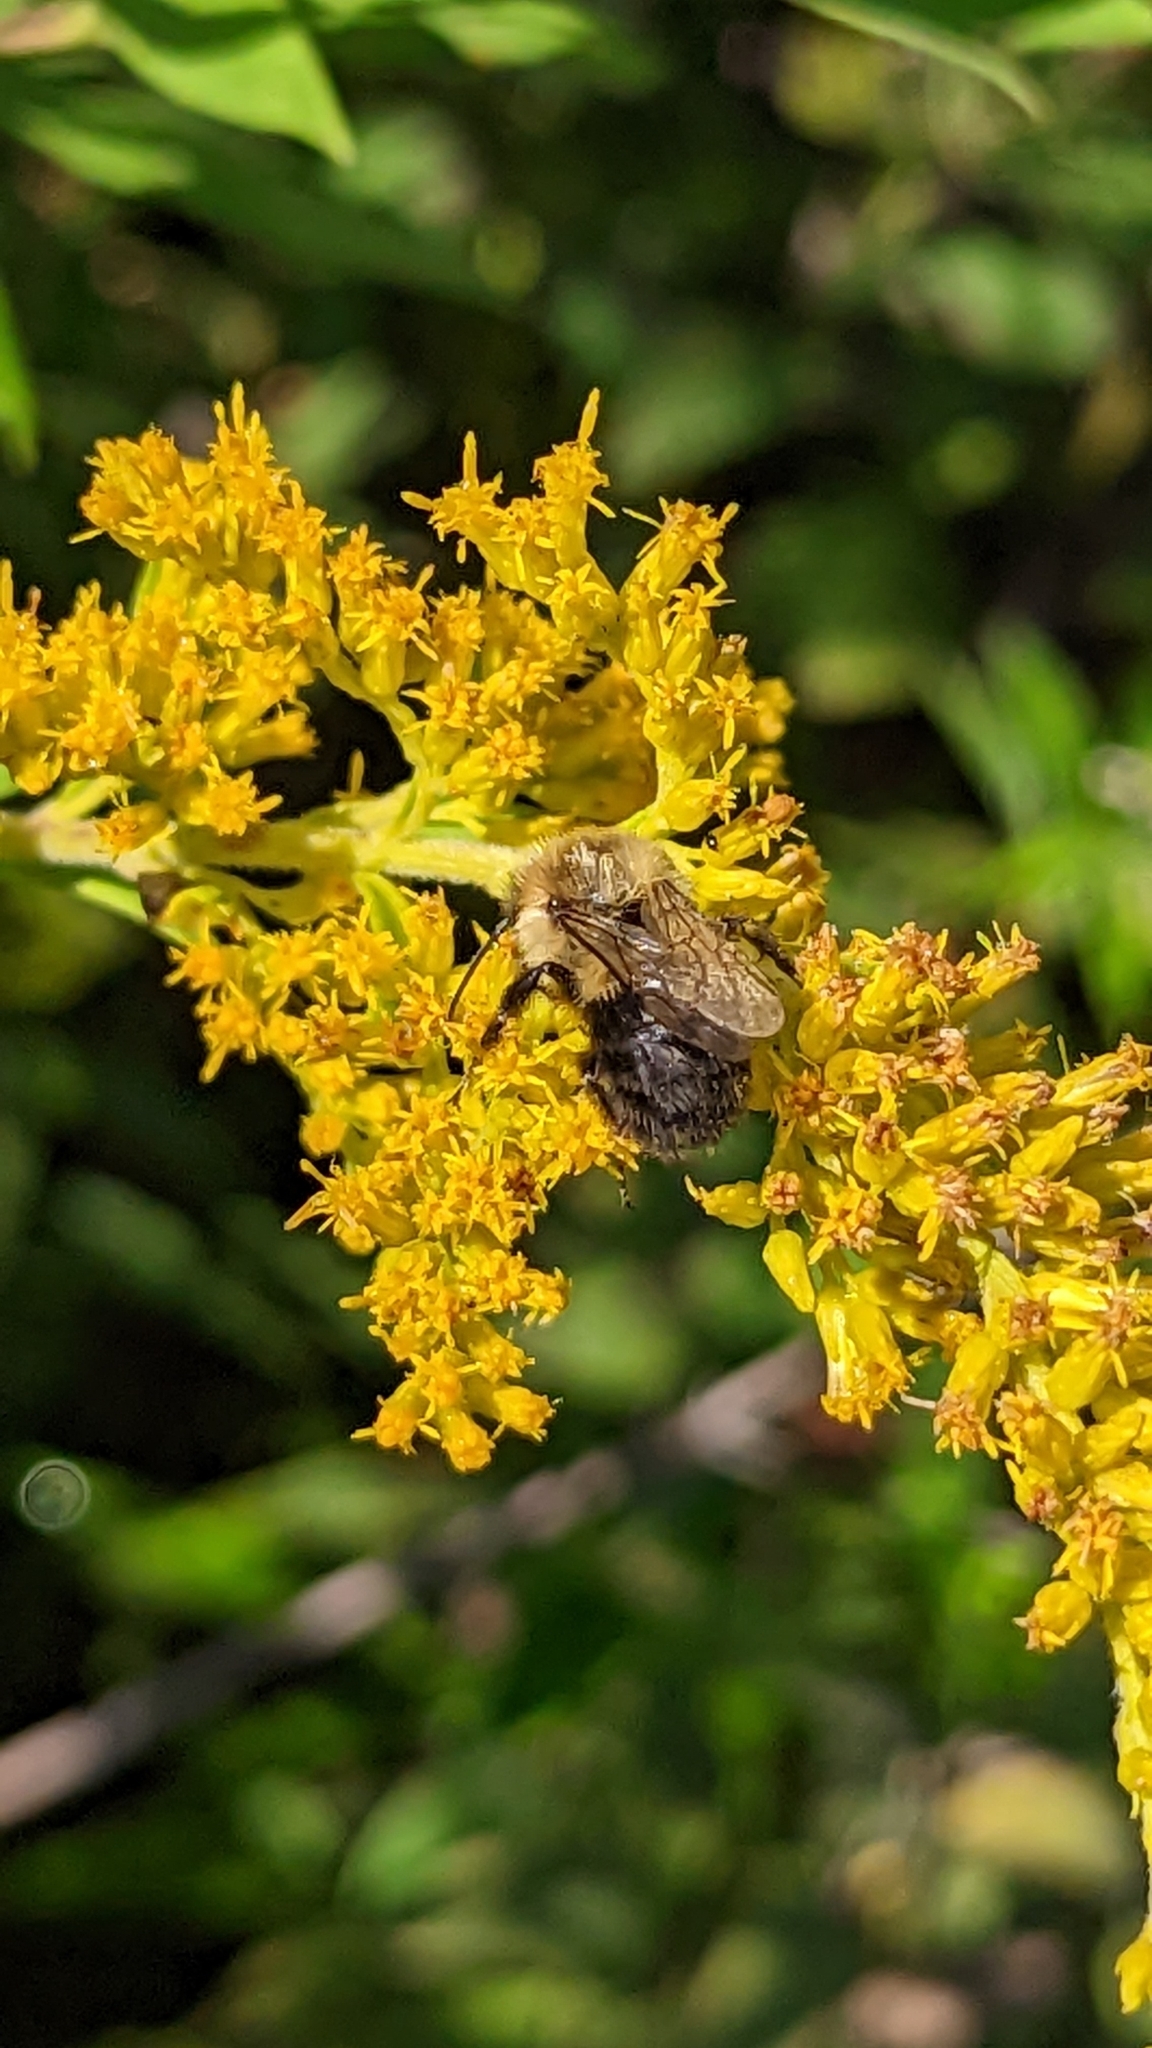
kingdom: Animalia
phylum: Arthropoda
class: Insecta
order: Hymenoptera
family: Apidae
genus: Bombus
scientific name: Bombus impatiens
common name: Common eastern bumble bee
